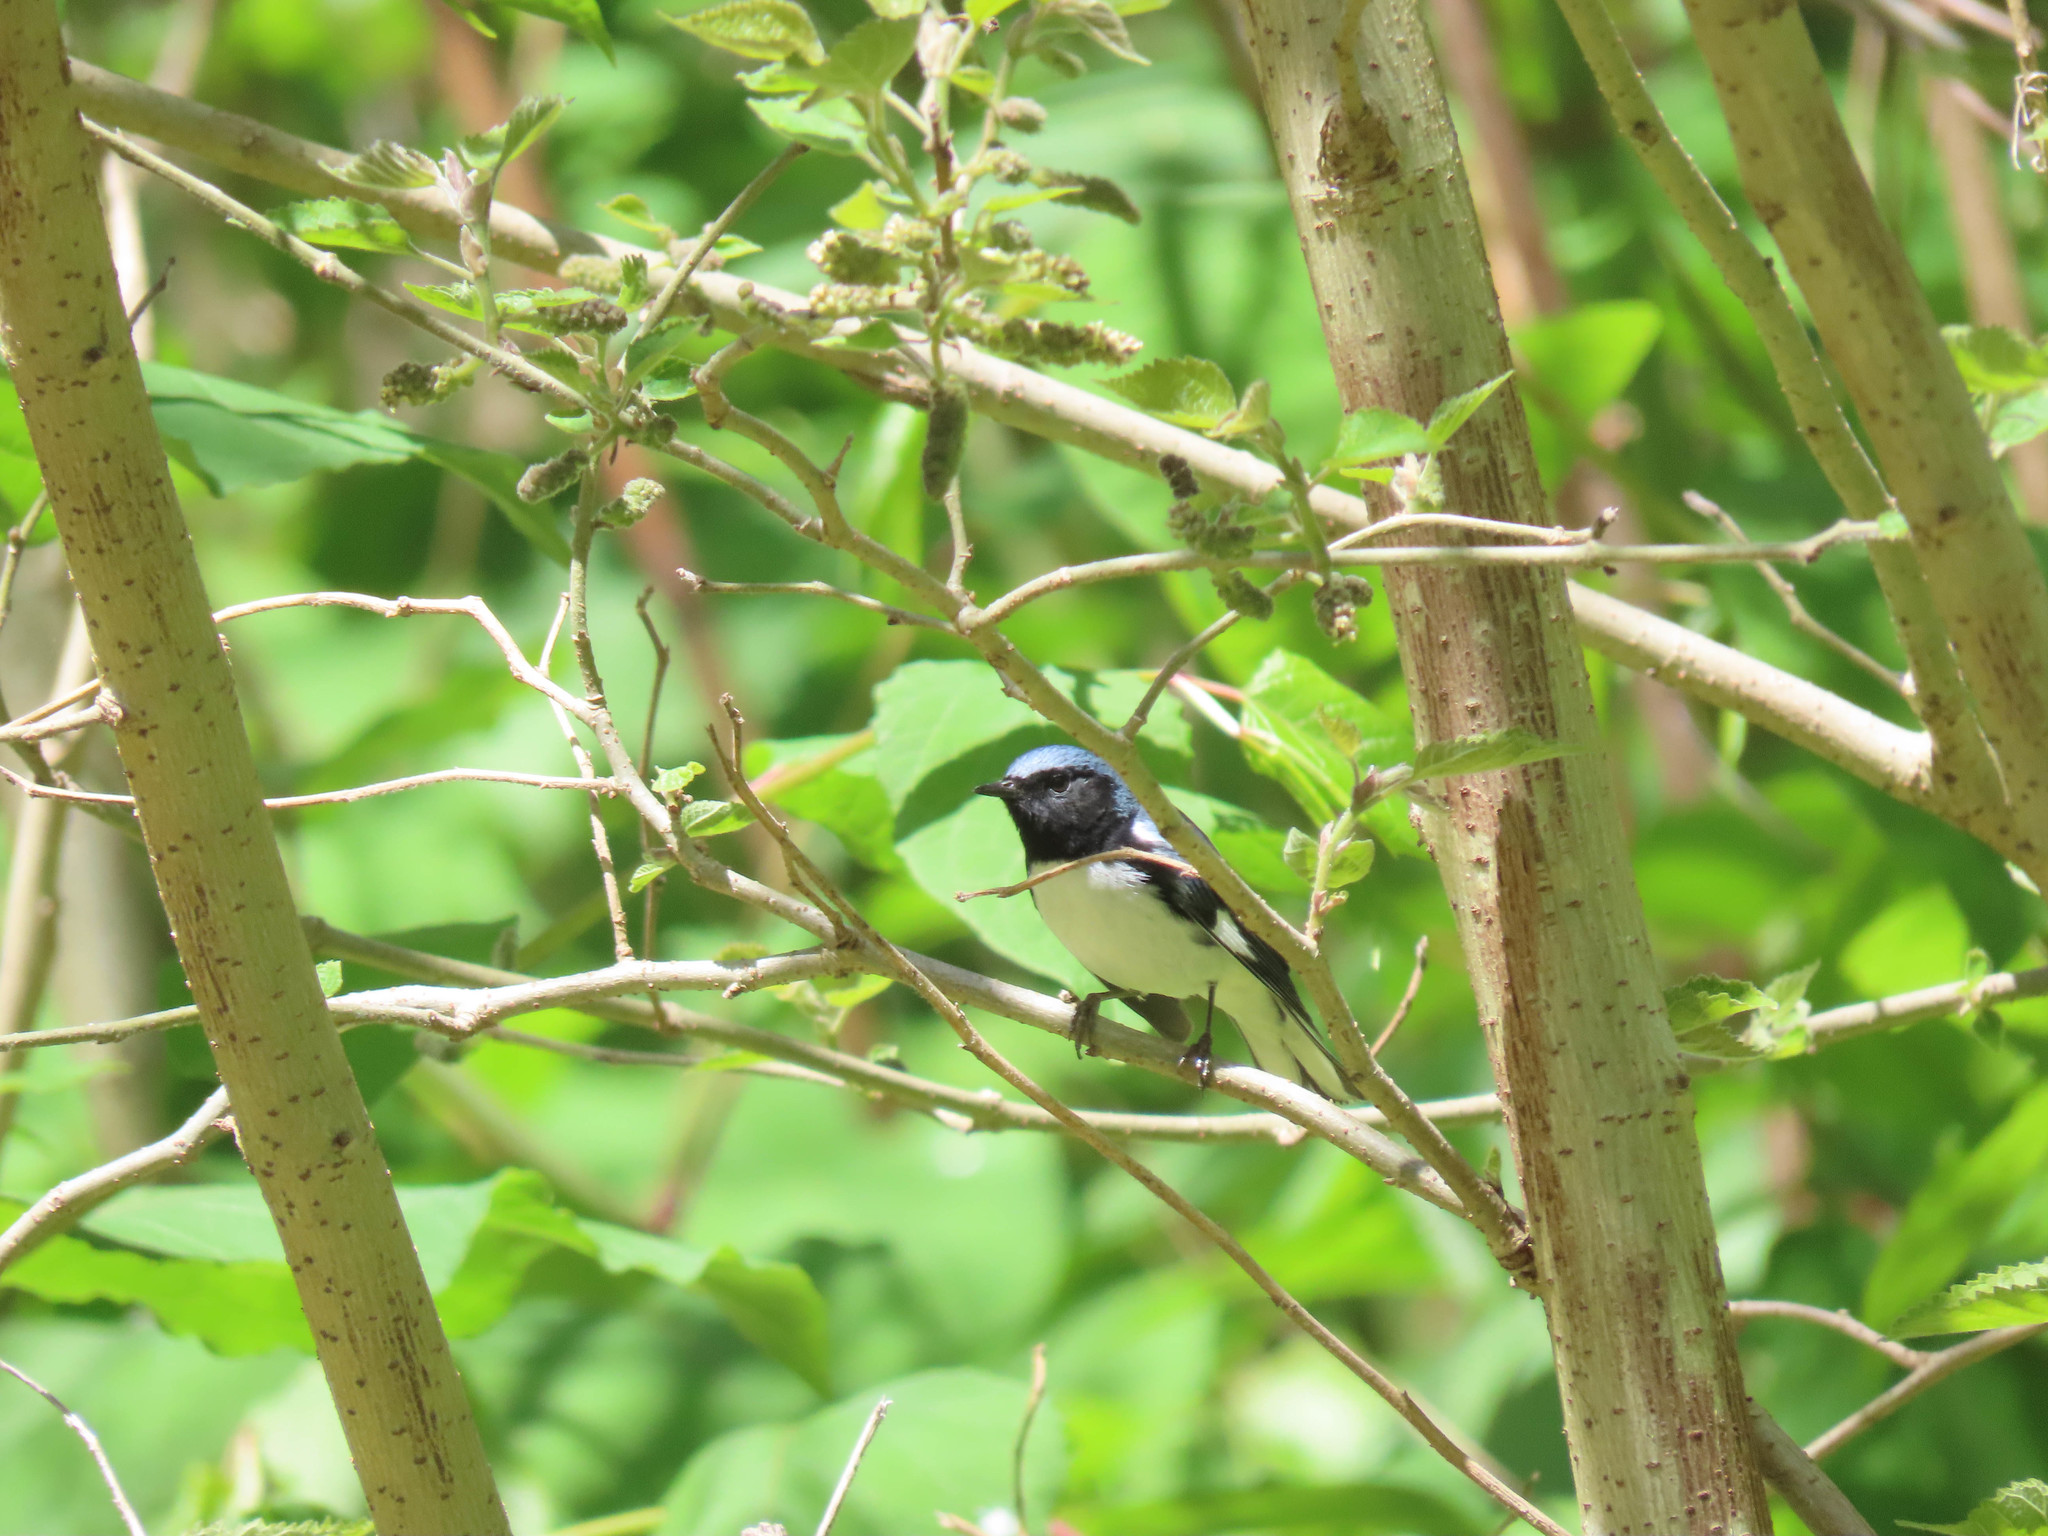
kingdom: Animalia
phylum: Chordata
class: Aves
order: Passeriformes
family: Parulidae
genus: Setophaga
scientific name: Setophaga caerulescens
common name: Black-throated blue warbler
